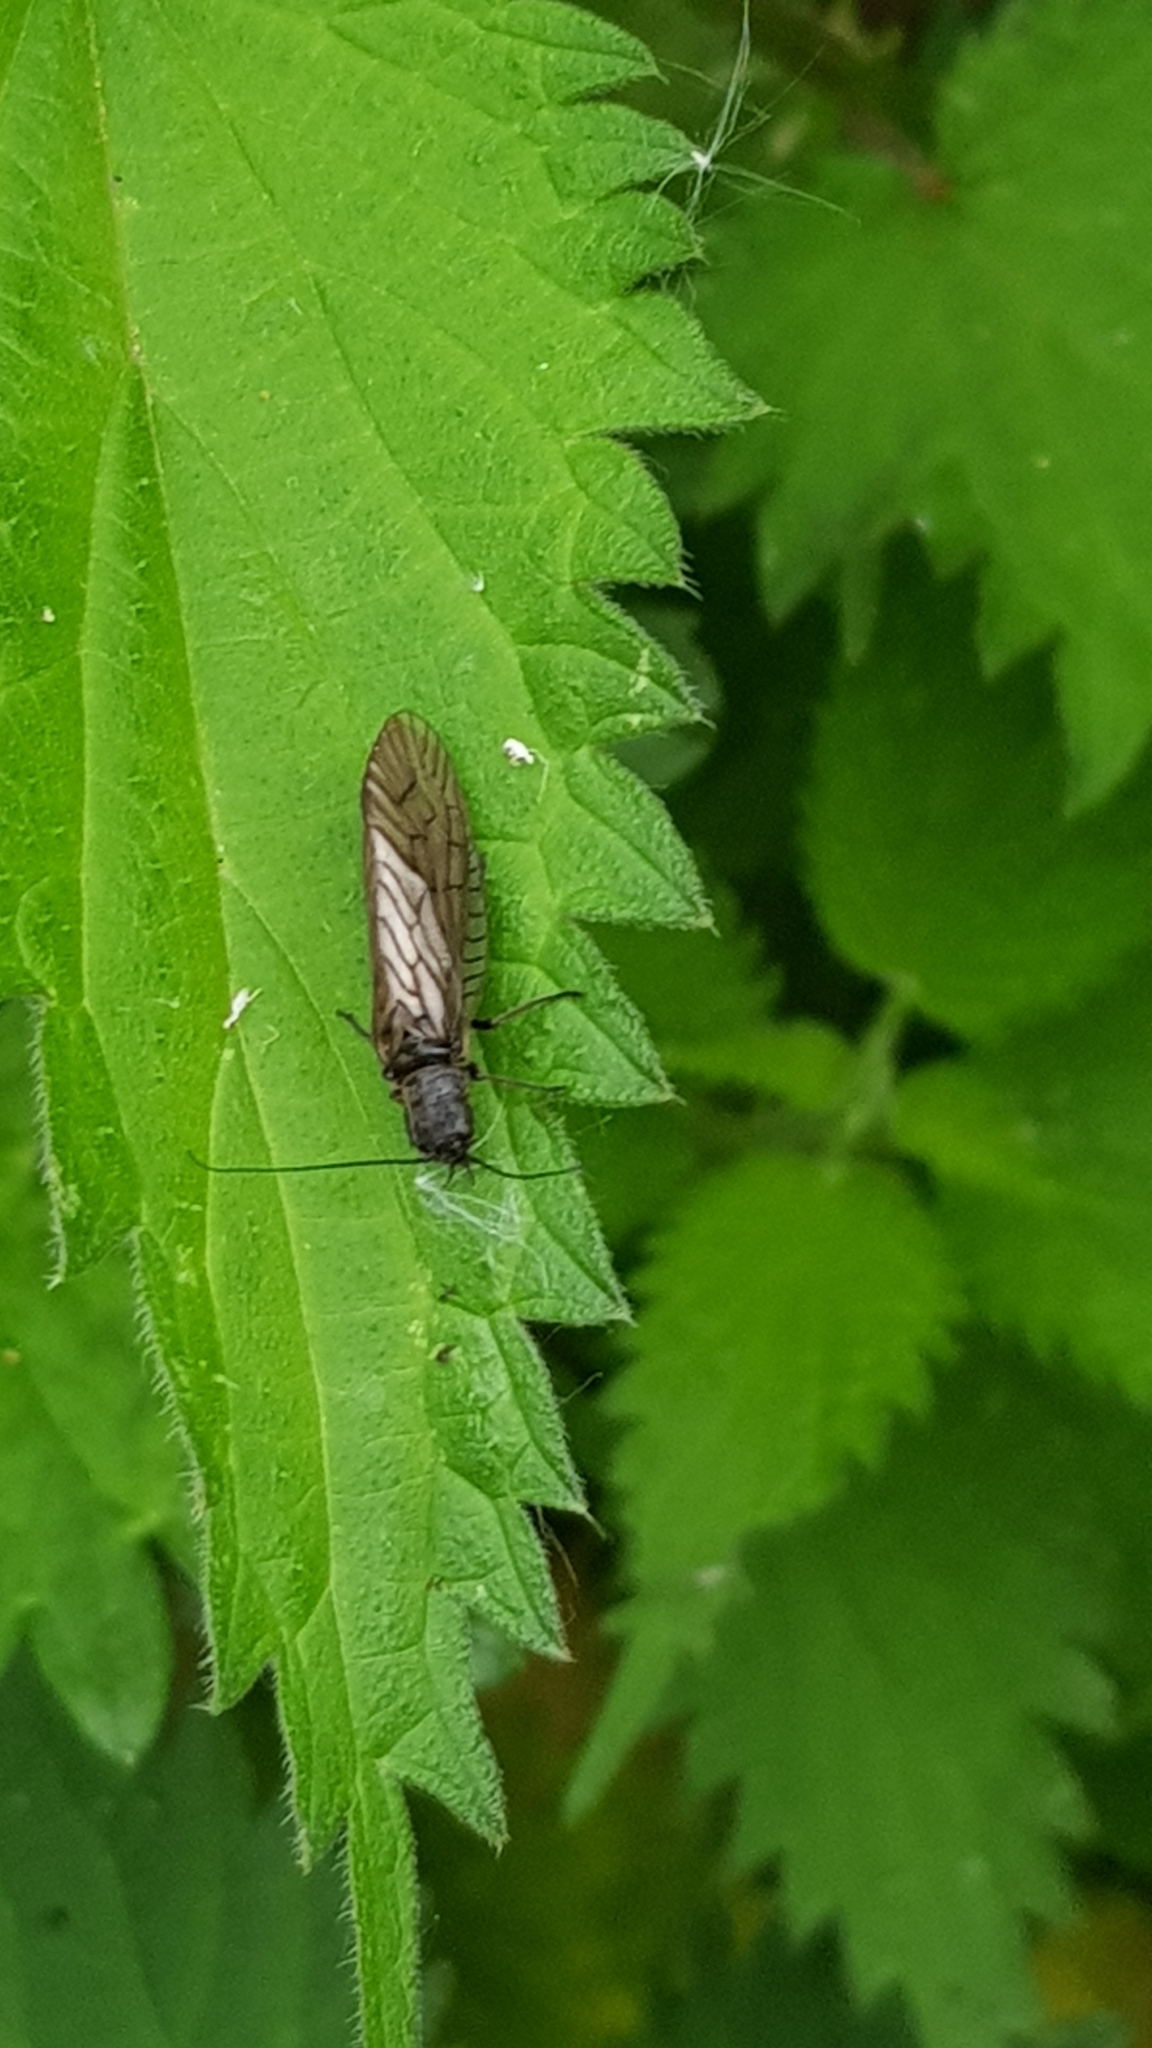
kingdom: Animalia
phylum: Arthropoda
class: Insecta
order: Megaloptera
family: Sialidae
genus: Sialis
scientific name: Sialis
